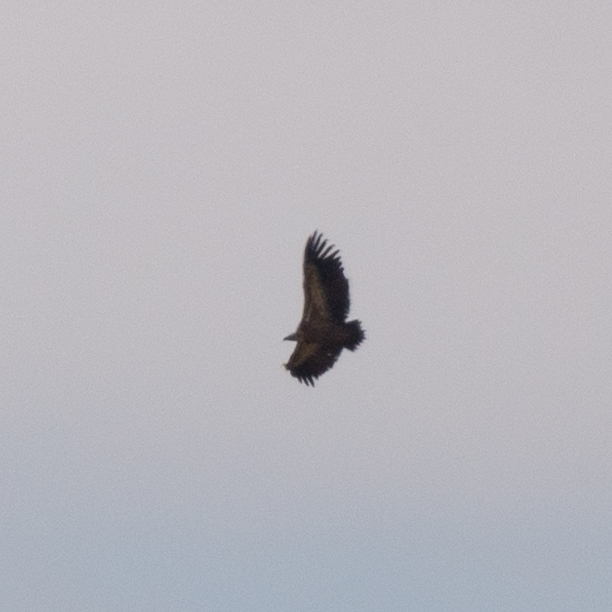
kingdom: Animalia
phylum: Chordata
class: Aves
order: Accipitriformes
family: Accipitridae
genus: Gyps
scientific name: Gyps fulvus
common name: Griffon vulture
